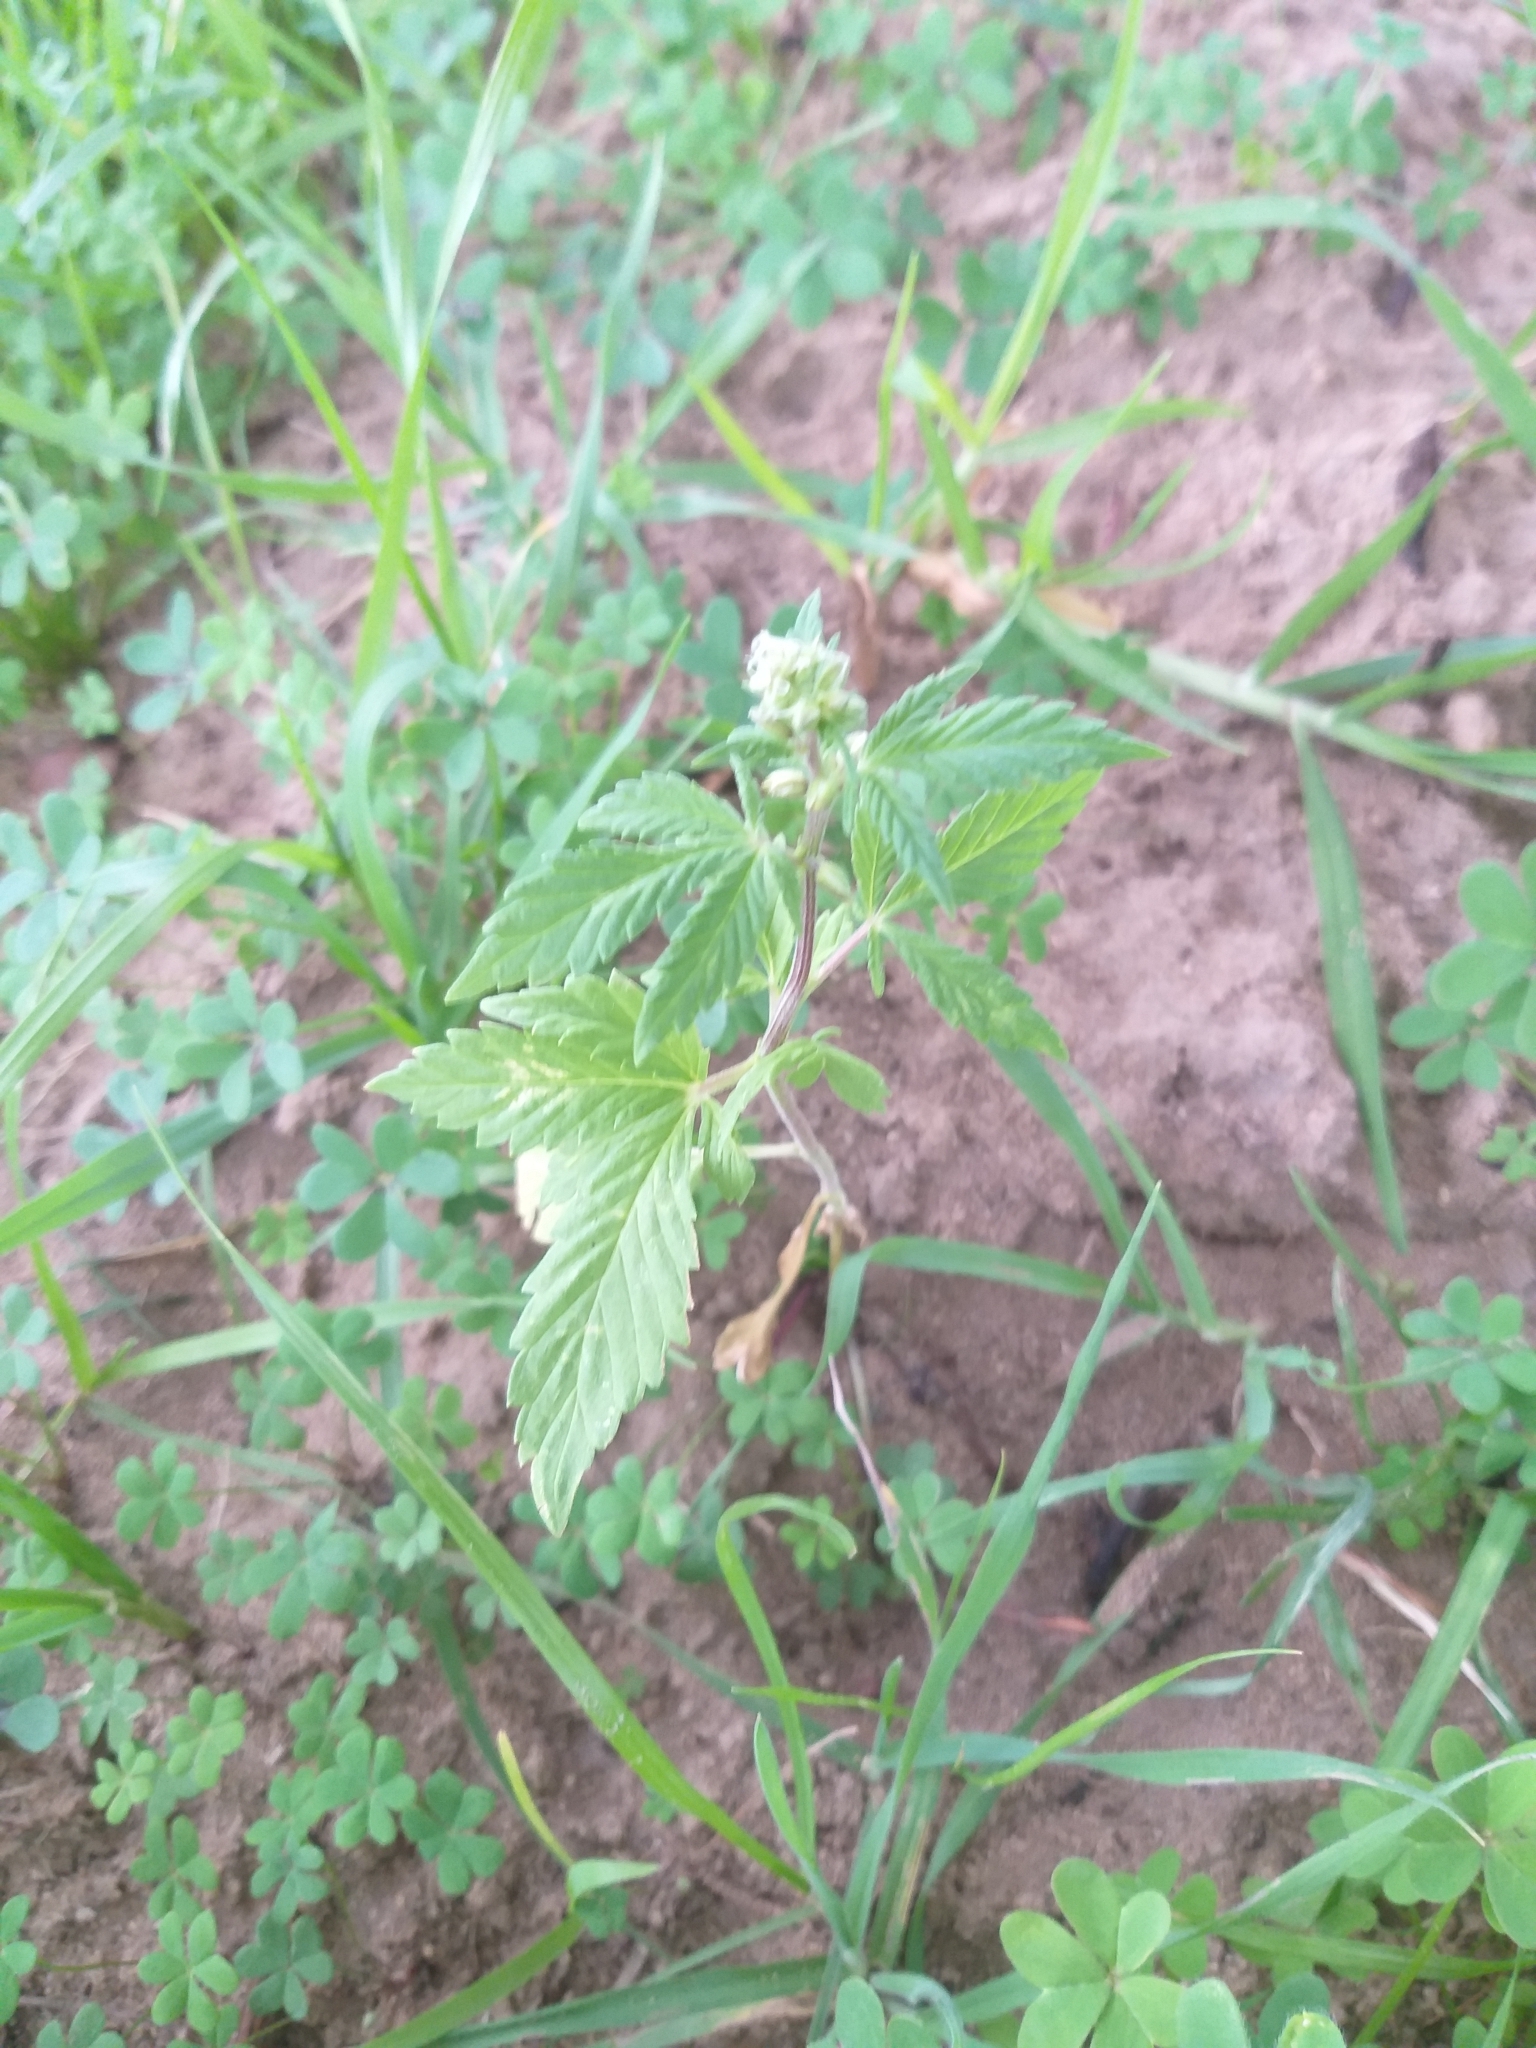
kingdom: Plantae
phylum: Tracheophyta
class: Magnoliopsida
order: Rosales
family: Cannabaceae
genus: Cannabis
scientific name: Cannabis sativa
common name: Hemp
